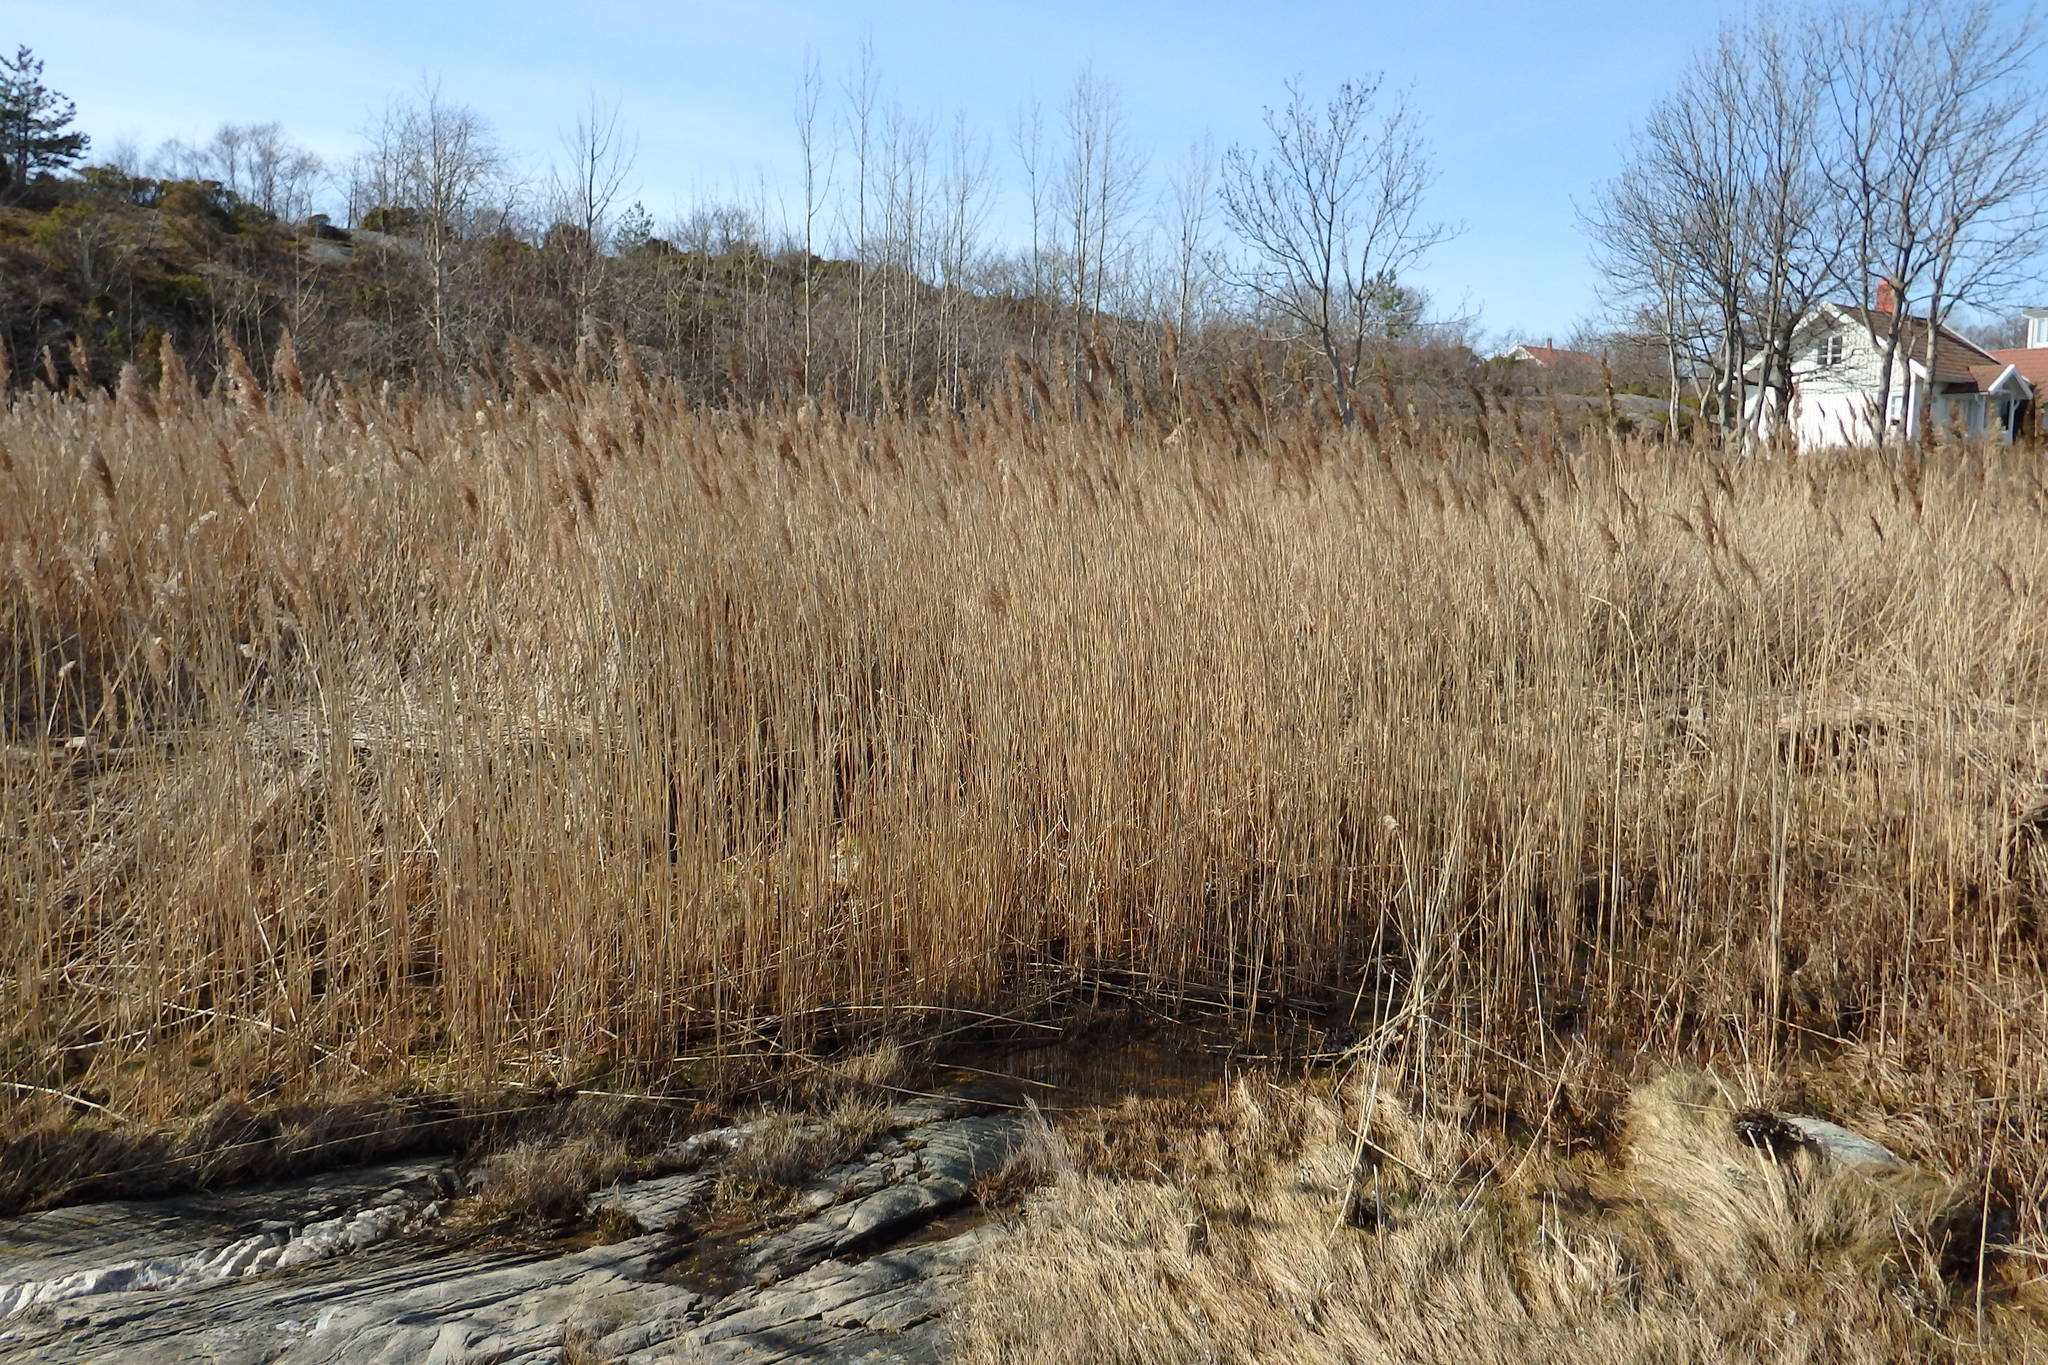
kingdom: Plantae
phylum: Tracheophyta
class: Liliopsida
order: Poales
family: Poaceae
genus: Phragmites
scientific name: Phragmites australis
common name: Common reed
